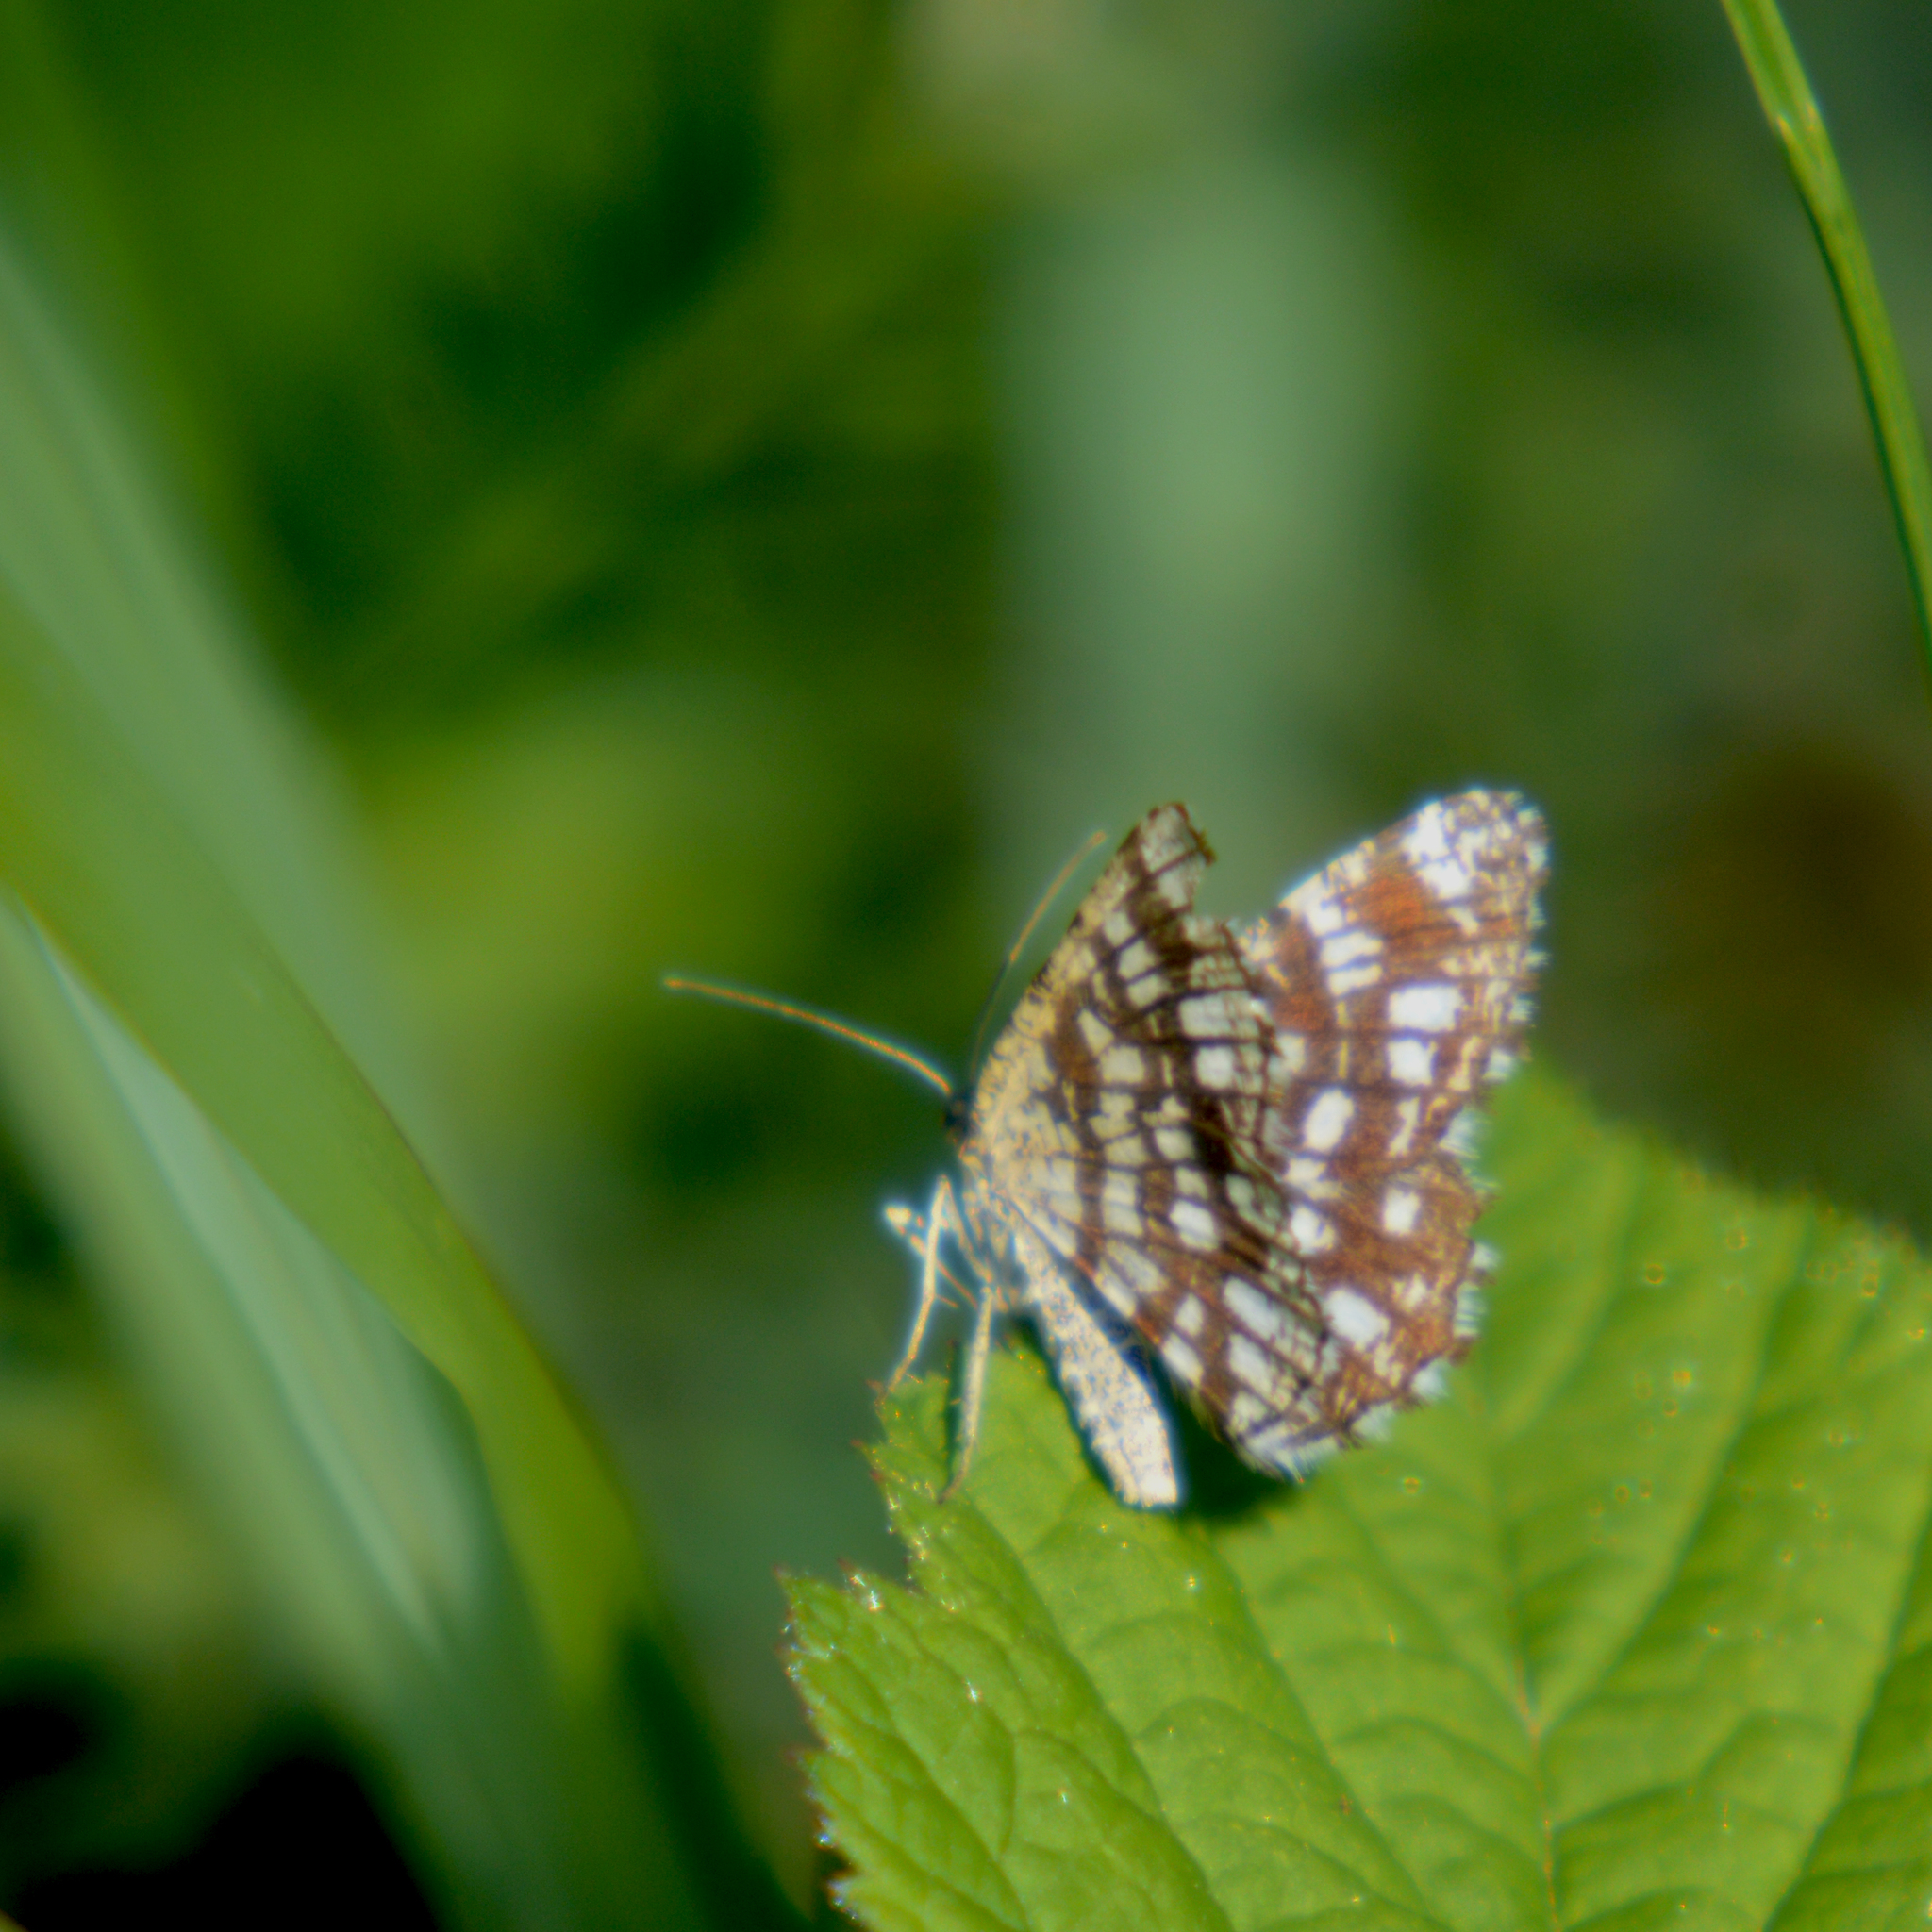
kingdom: Animalia
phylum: Arthropoda
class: Insecta
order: Lepidoptera
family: Geometridae
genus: Chiasmia
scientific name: Chiasmia clathrata
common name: Latticed heath
